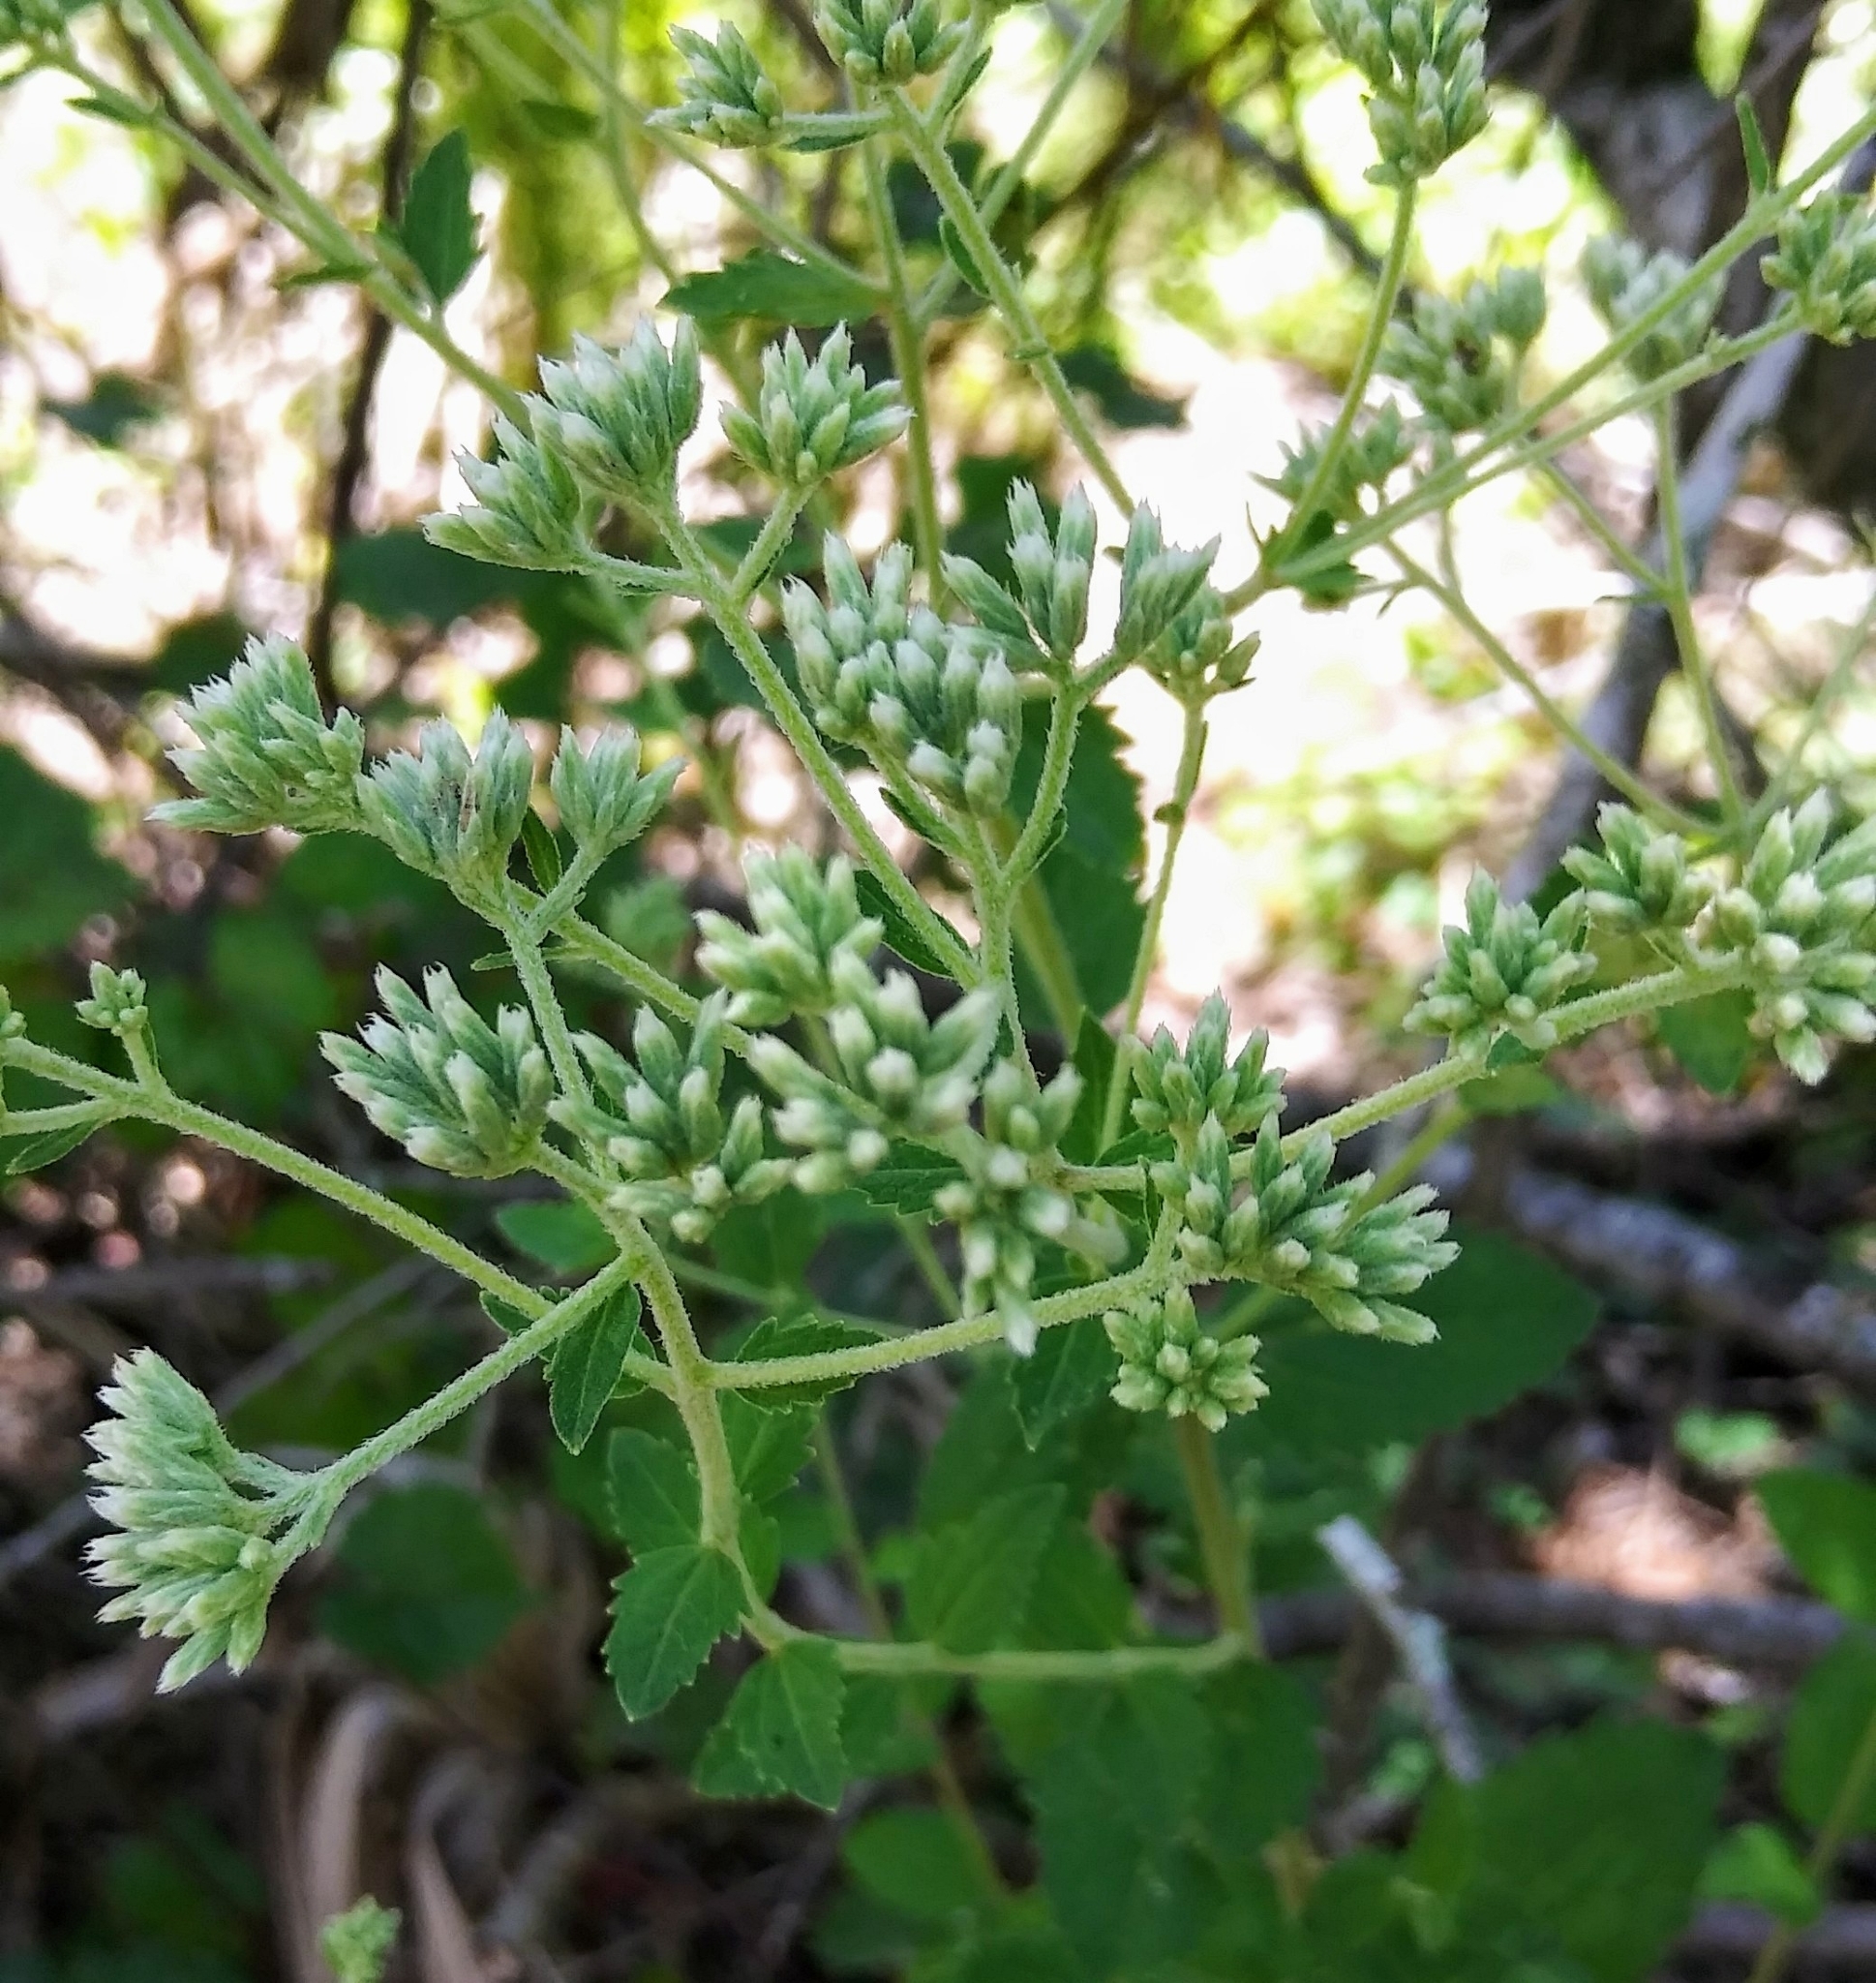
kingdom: Plantae
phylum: Tracheophyta
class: Magnoliopsida
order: Asterales
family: Asteraceae
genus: Eupatorium
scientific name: Eupatorium rotundifolium
